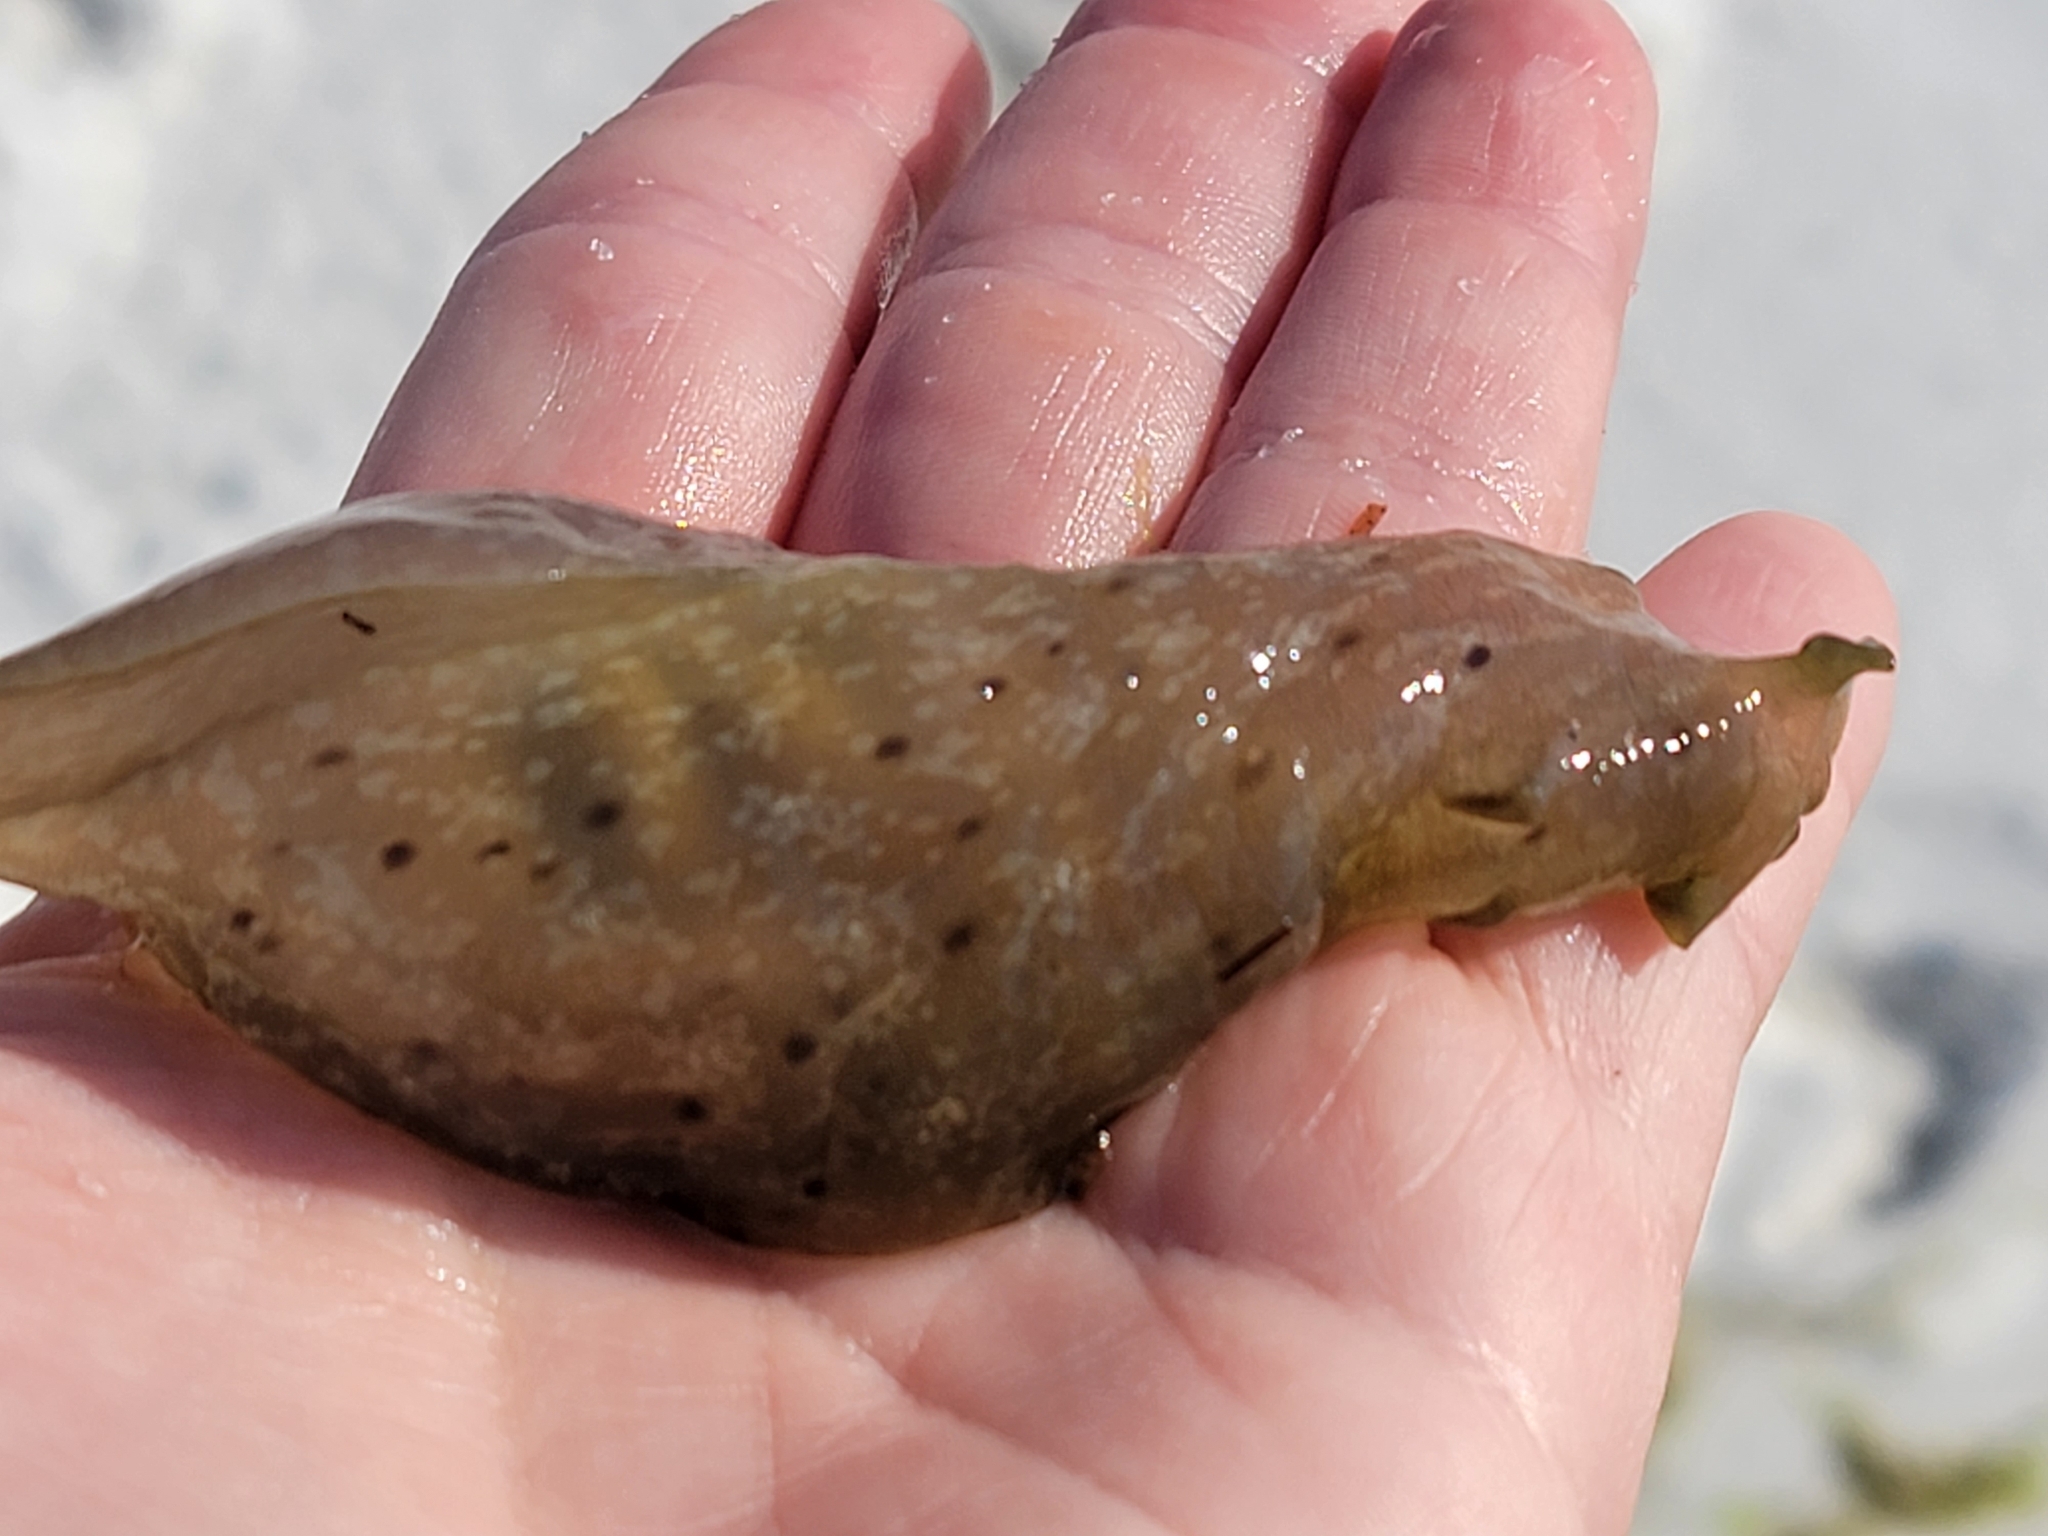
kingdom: Animalia
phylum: Mollusca
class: Gastropoda
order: Aplysiida
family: Aplysiidae
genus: Aplysia
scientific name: Aplysia brasiliana
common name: Mottled seahare
